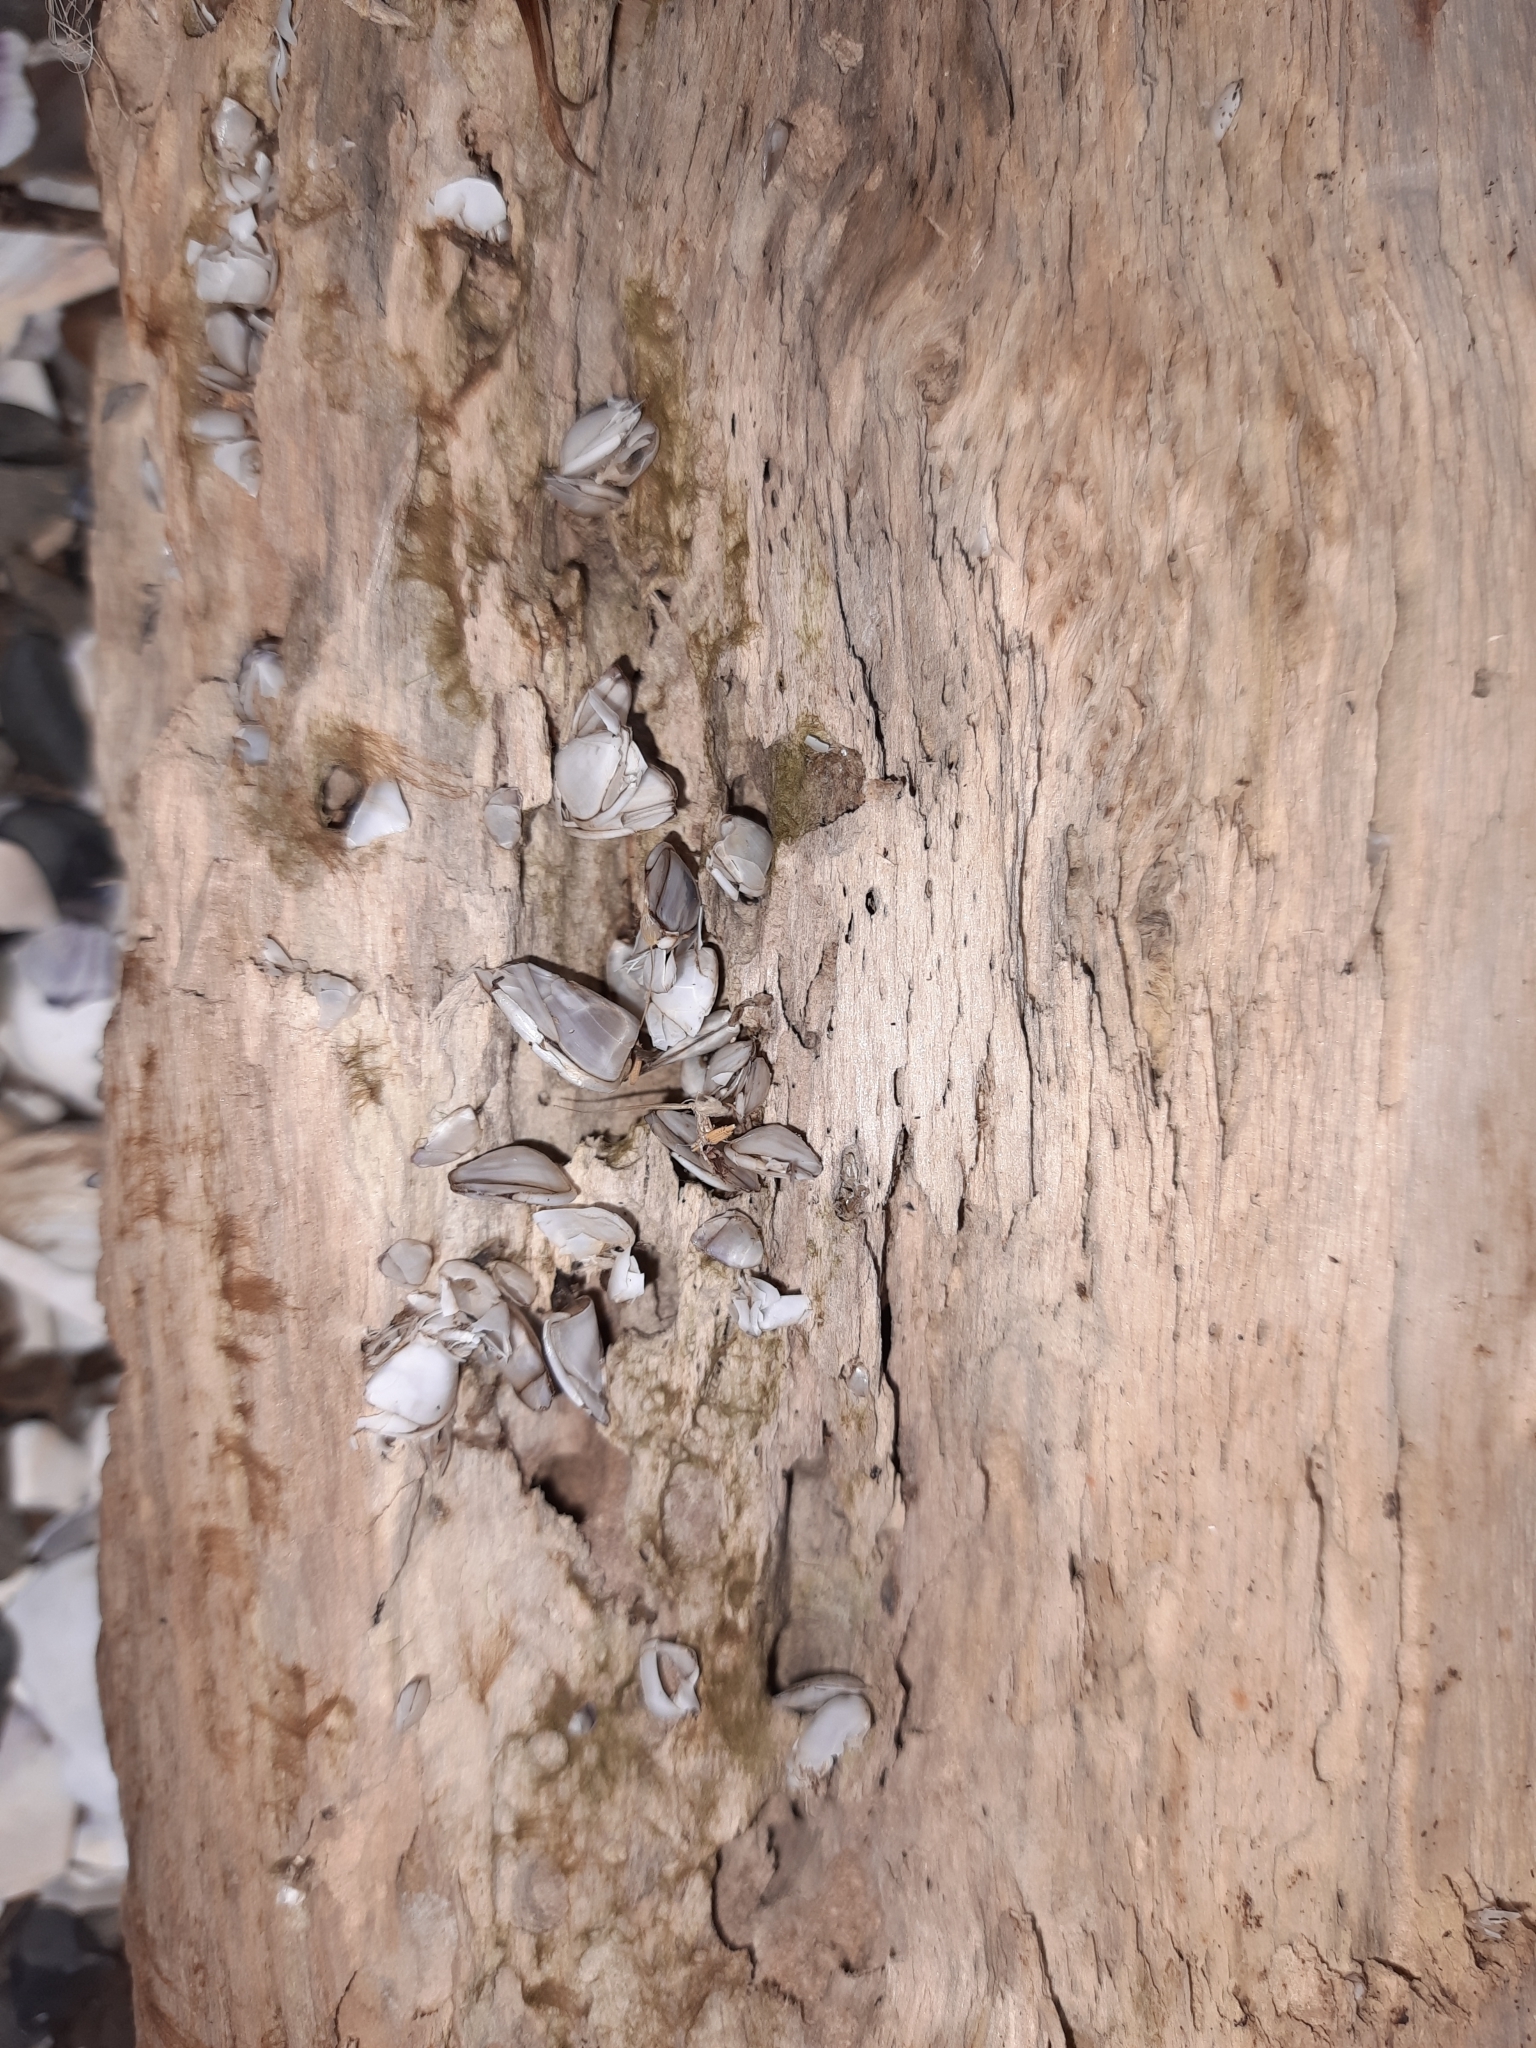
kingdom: Animalia
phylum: Arthropoda
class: Maxillopoda
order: Pedunculata
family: Lepadidae
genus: Lepas
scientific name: Lepas anatifera
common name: Common goose barnacle
